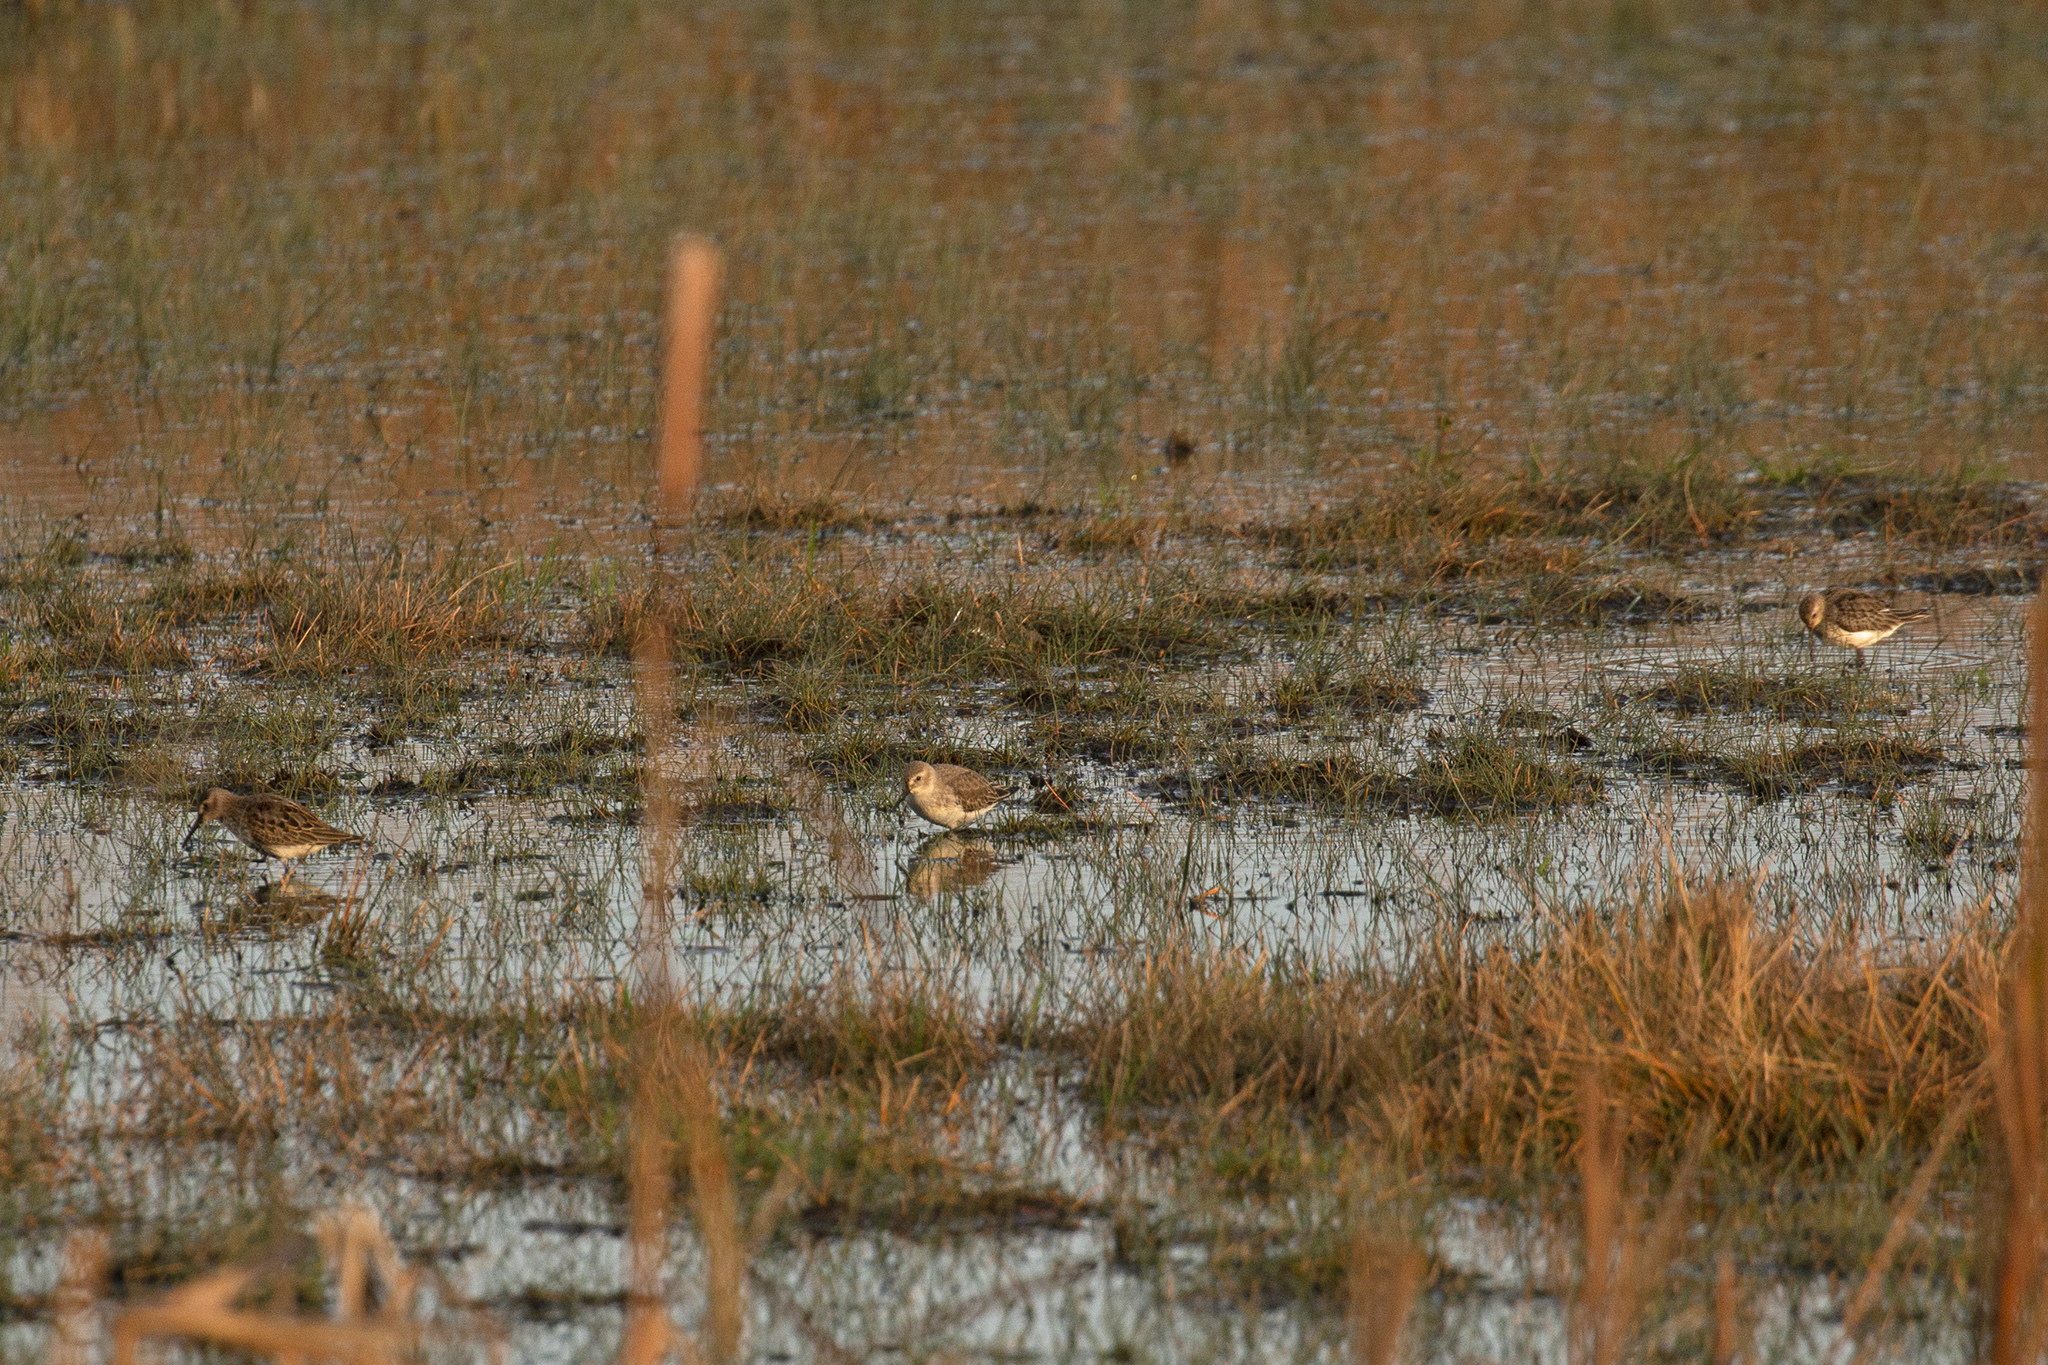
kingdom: Animalia
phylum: Chordata
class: Aves
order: Charadriiformes
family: Scolopacidae
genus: Calidris
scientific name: Calidris alpina
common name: Dunlin
